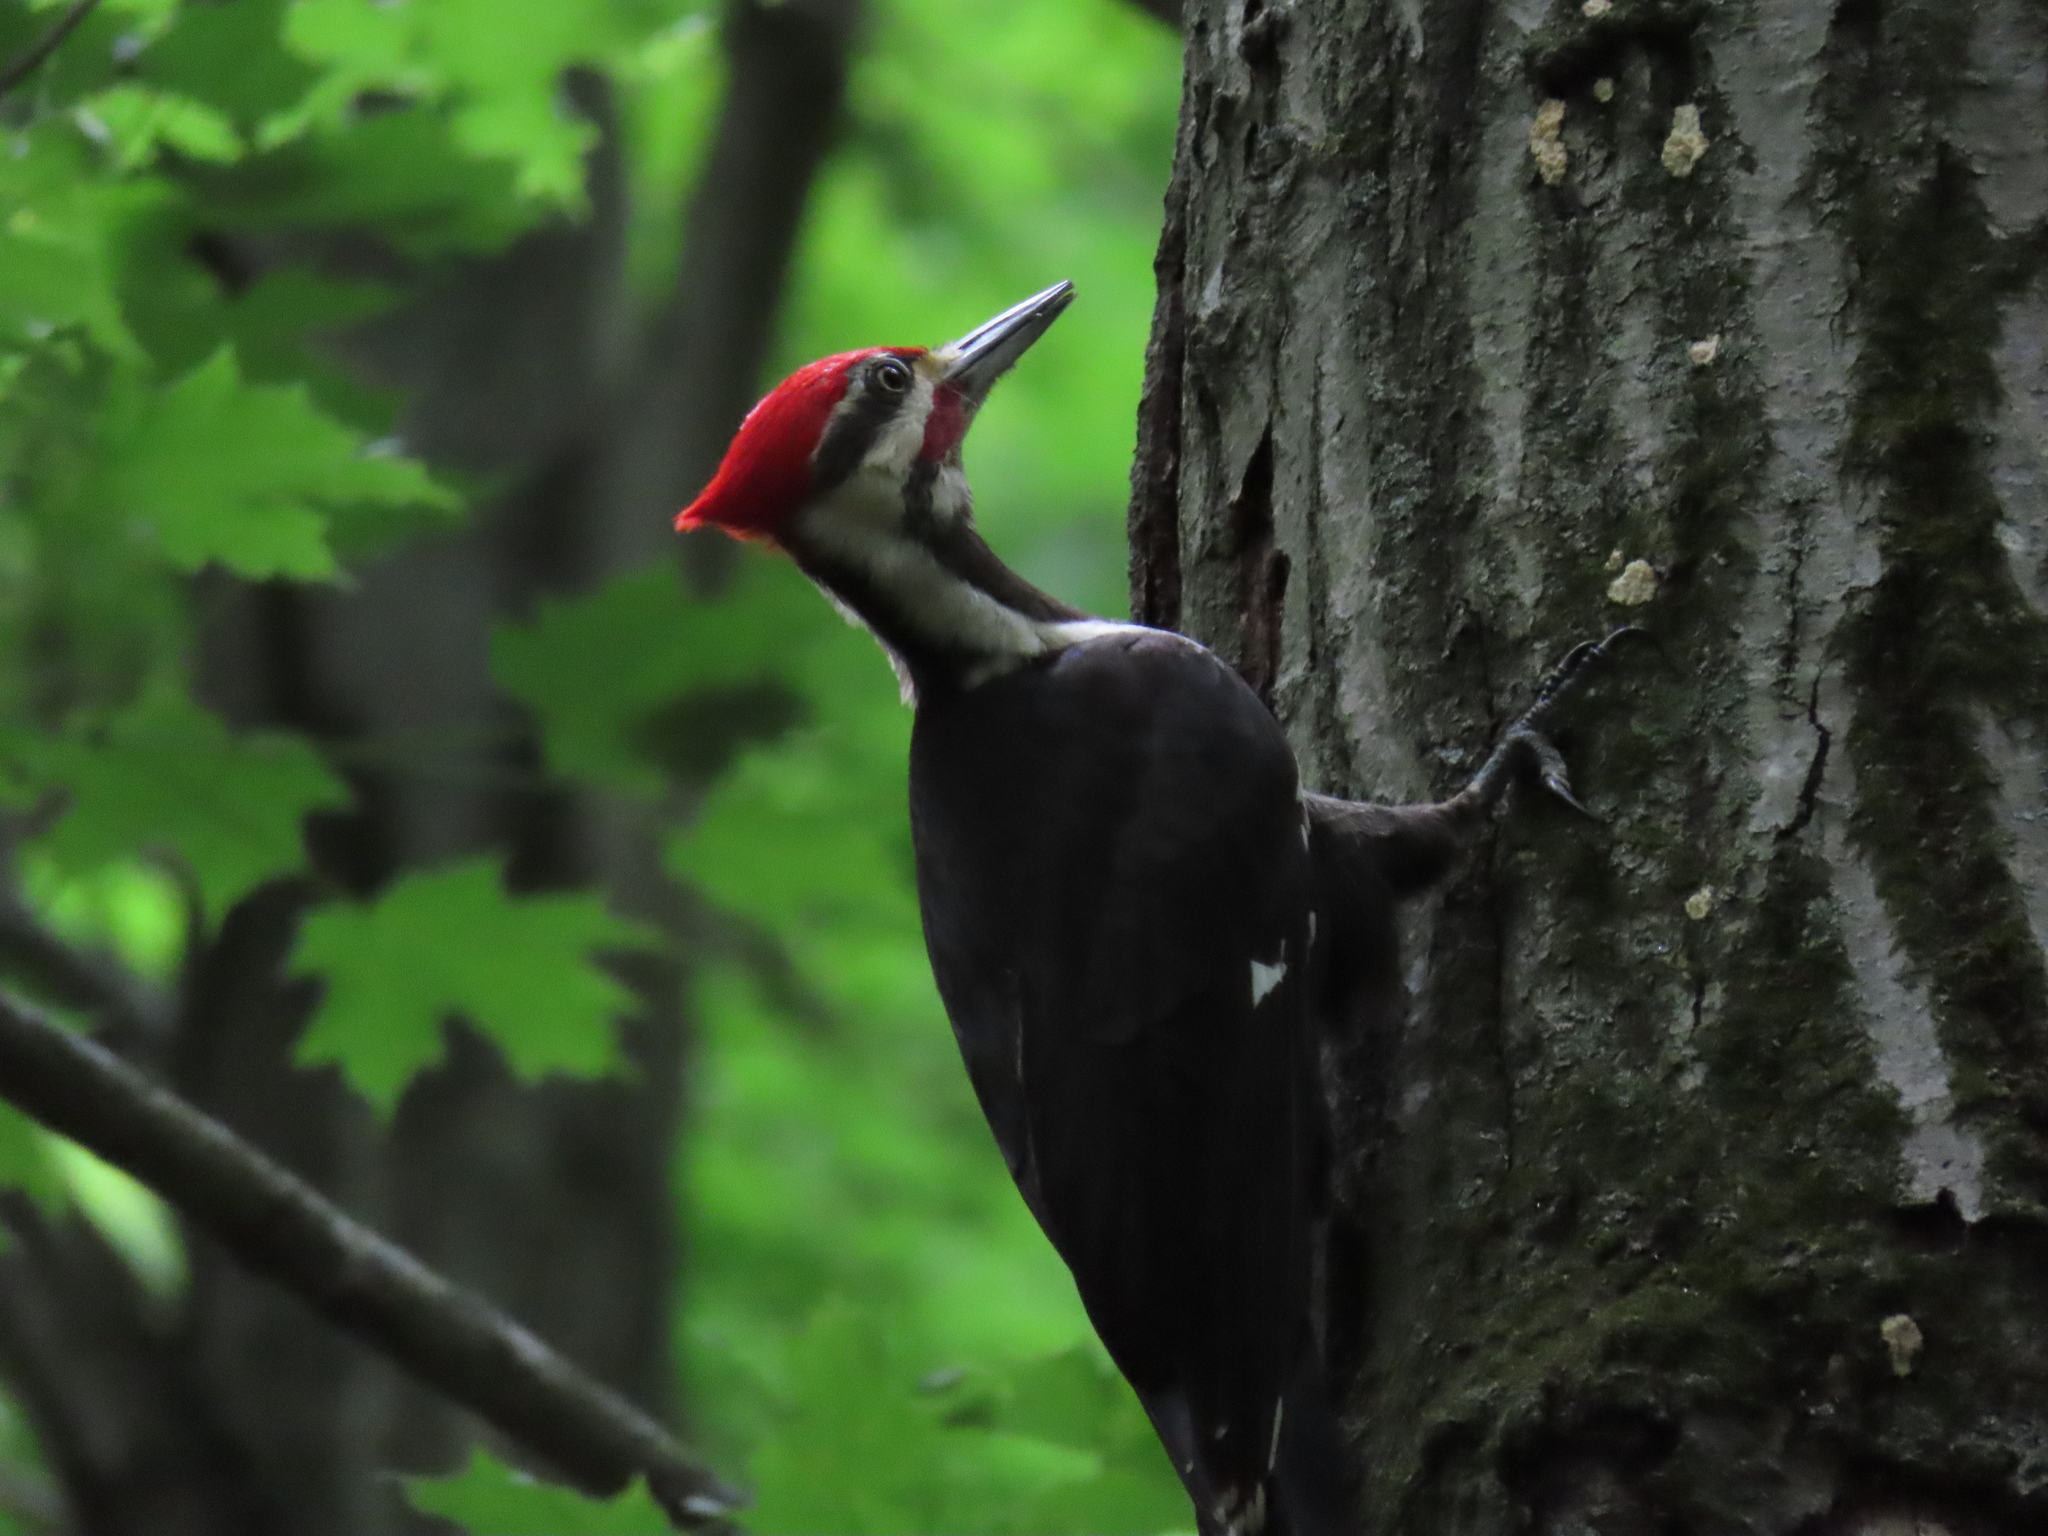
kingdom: Animalia
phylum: Chordata
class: Aves
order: Piciformes
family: Picidae
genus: Dryocopus
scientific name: Dryocopus pileatus
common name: Pileated woodpecker
